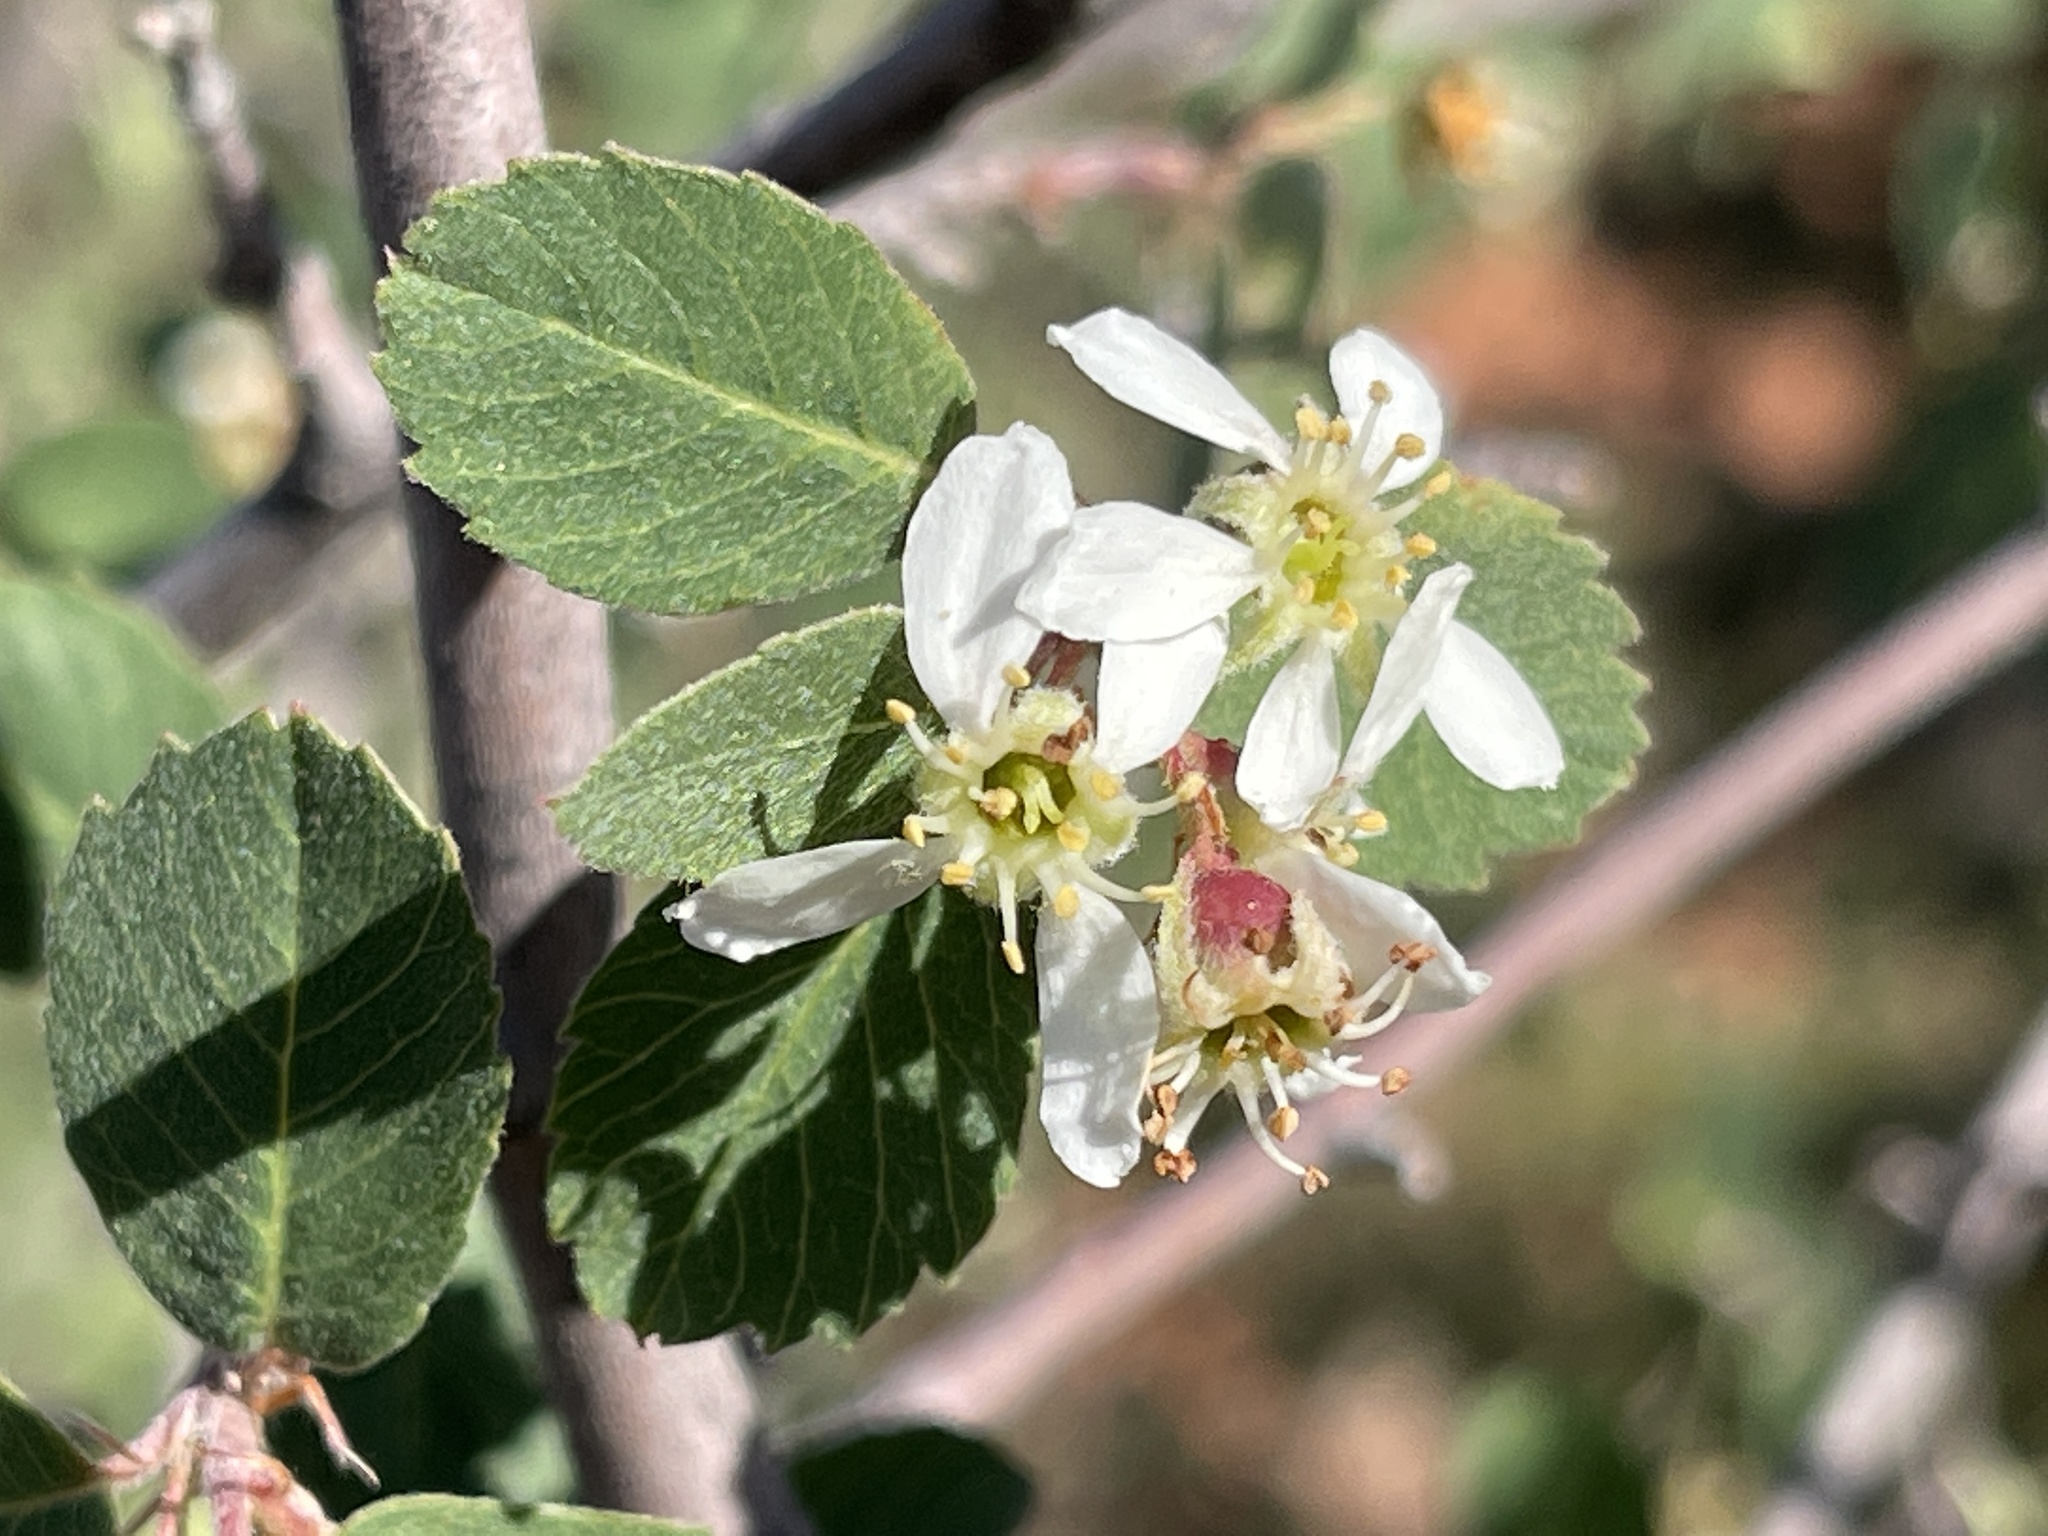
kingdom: Plantae
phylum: Tracheophyta
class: Magnoliopsida
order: Rosales
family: Rosaceae
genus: Amelanchier
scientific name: Amelanchier utahensis
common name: Utah serviceberry
